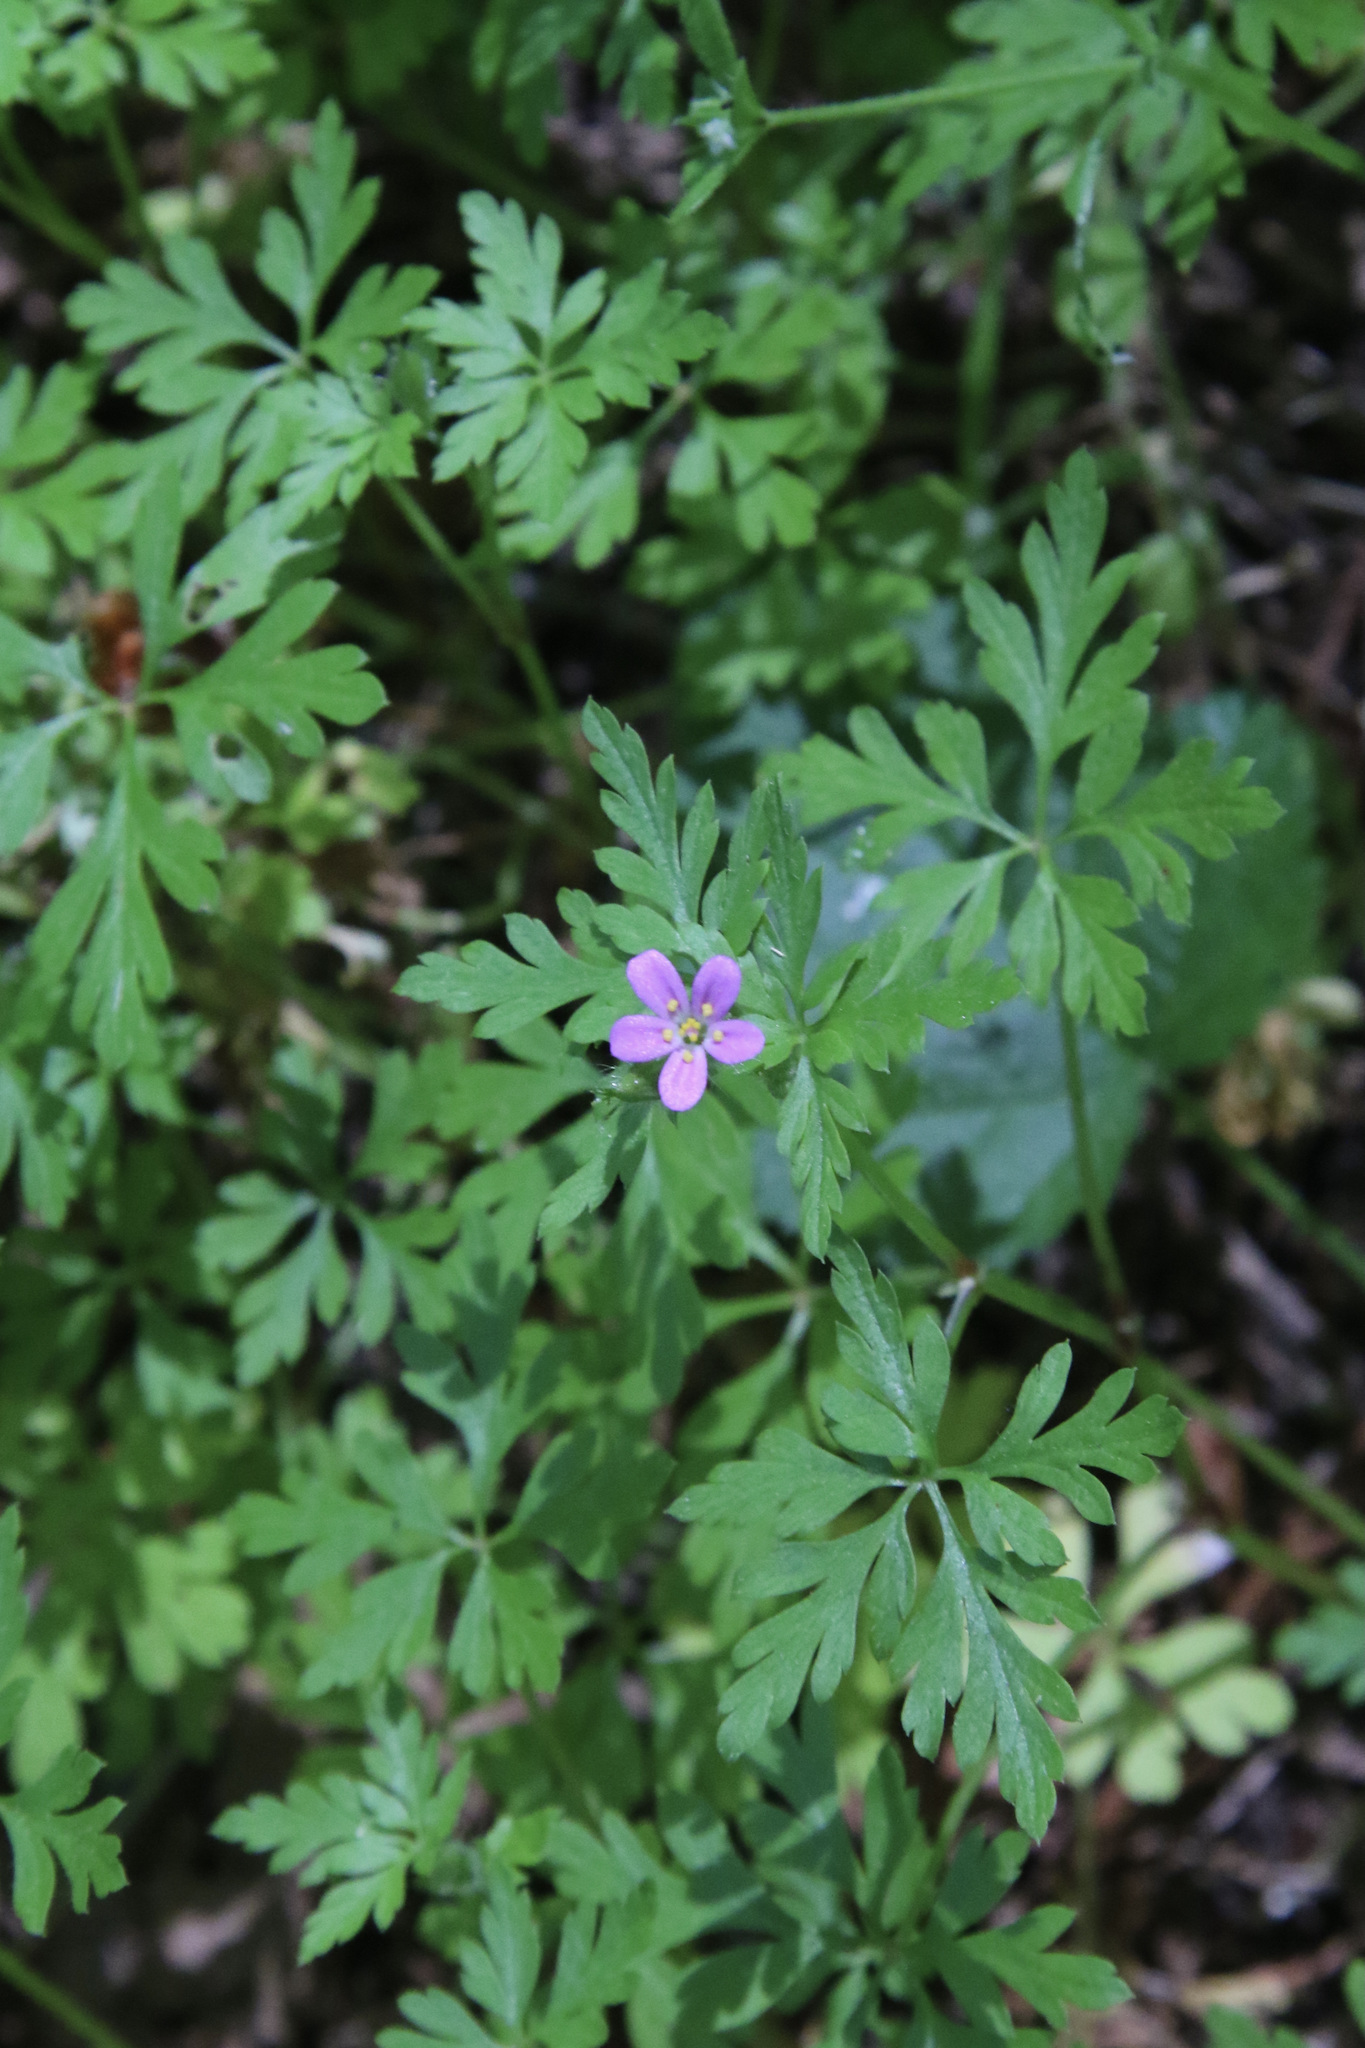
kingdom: Plantae
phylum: Tracheophyta
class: Magnoliopsida
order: Geraniales
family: Geraniaceae
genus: Geranium
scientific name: Geranium purpureum
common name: Little-robin
